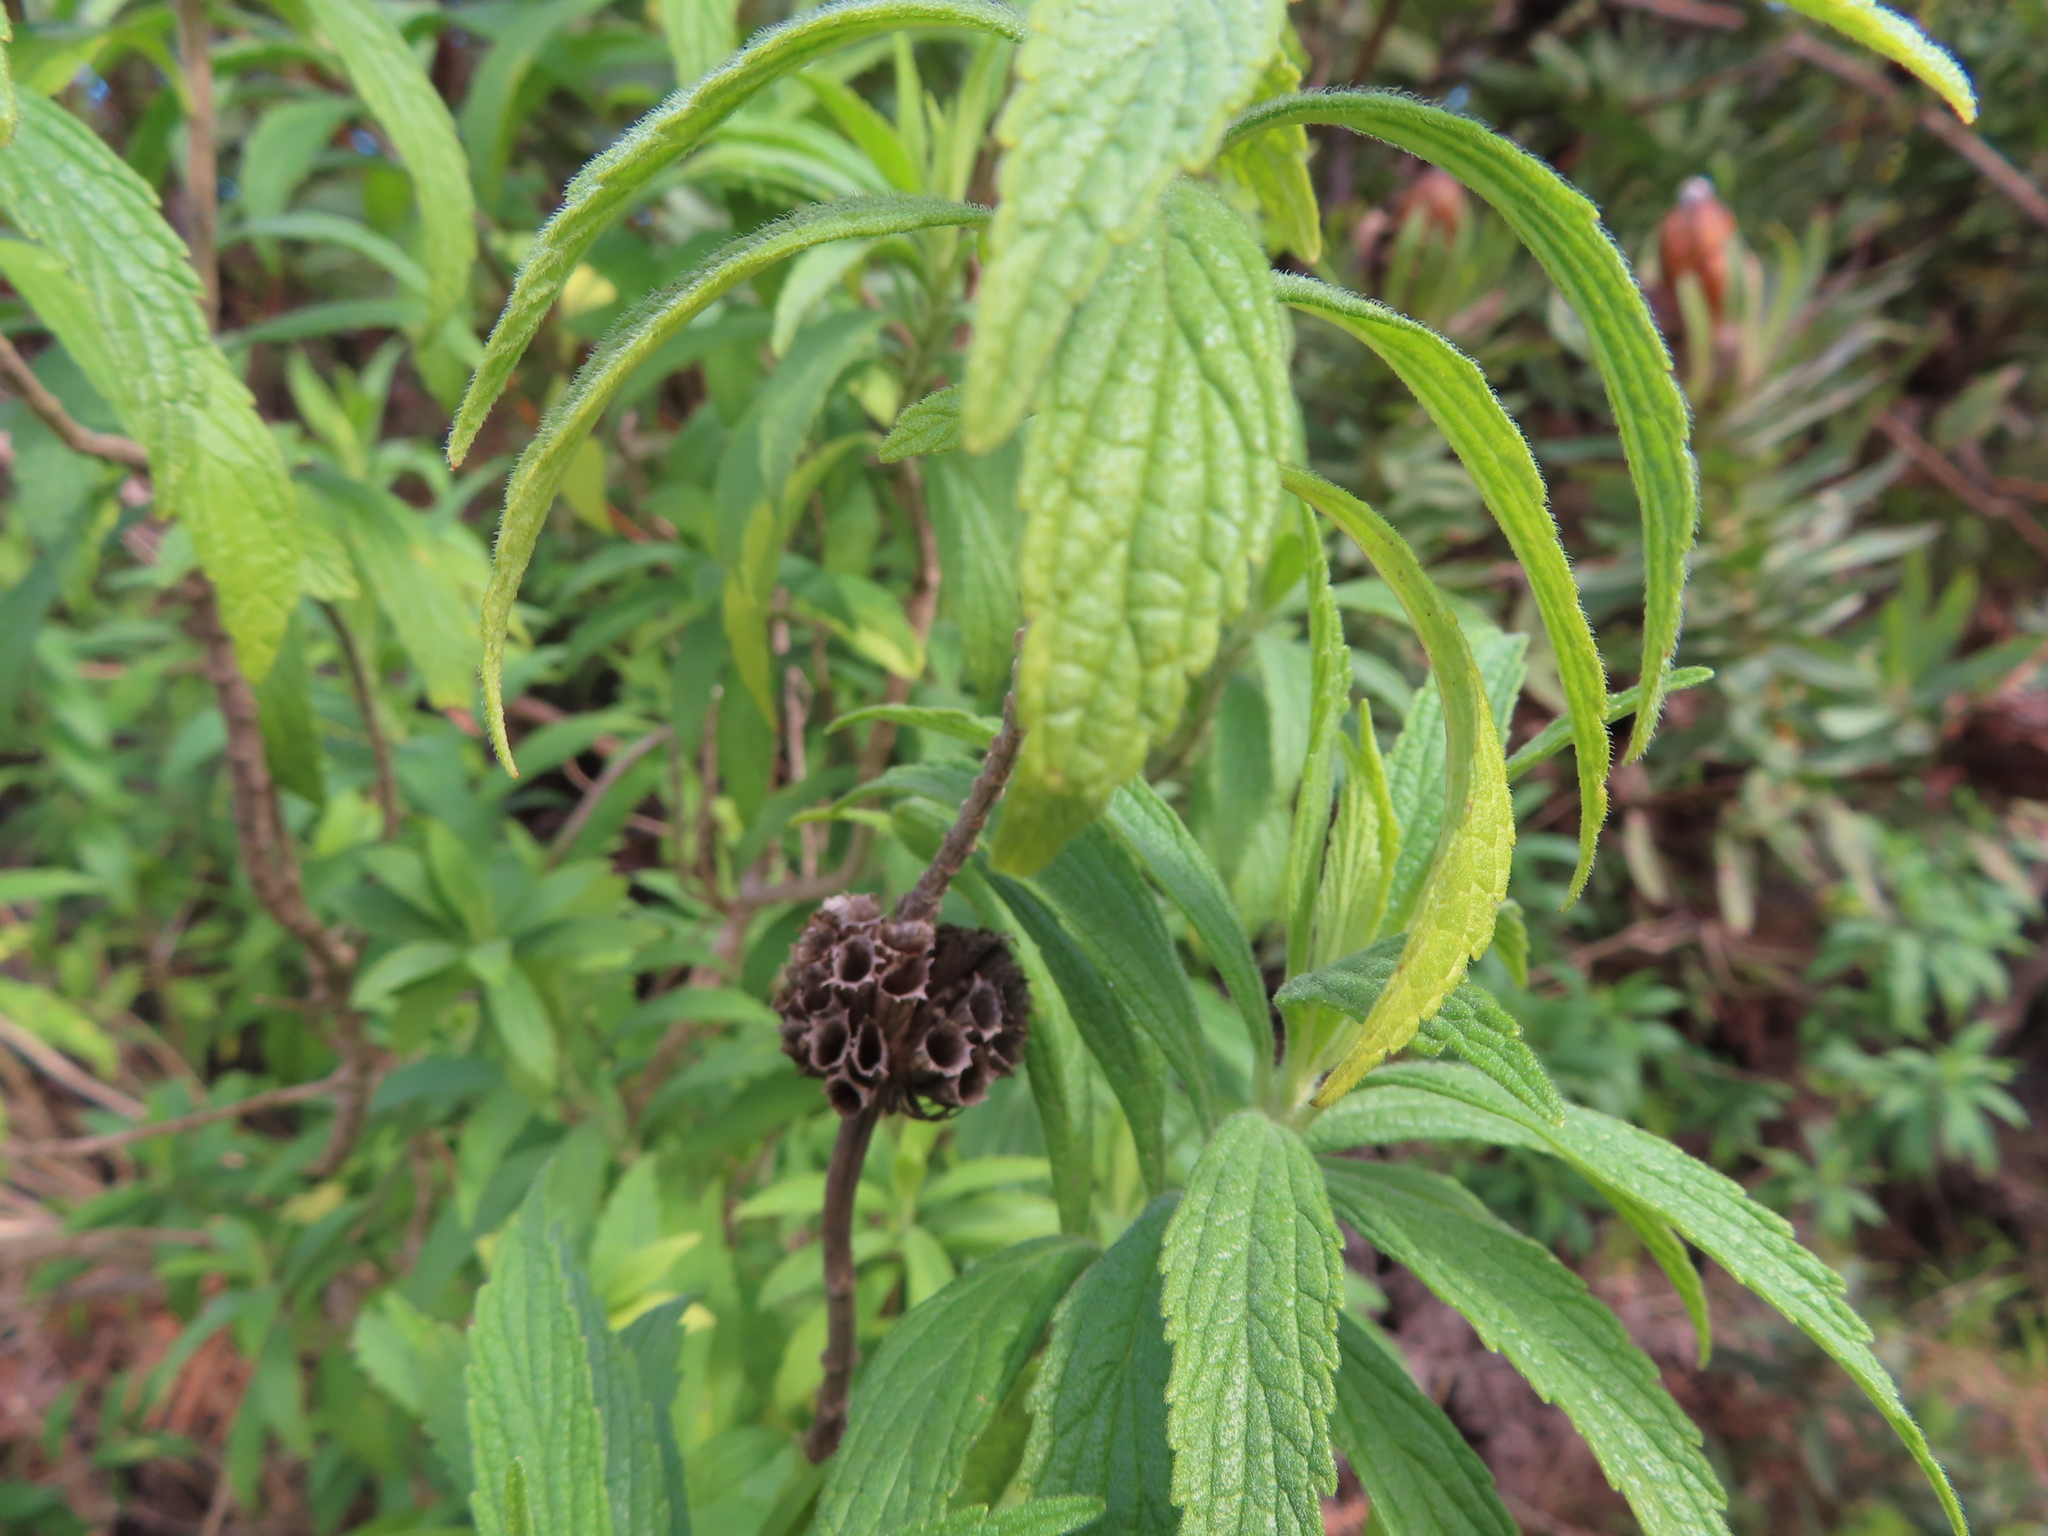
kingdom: Plantae
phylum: Tracheophyta
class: Magnoliopsida
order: Lamiales
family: Lamiaceae
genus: Leonotis
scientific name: Leonotis leonurus
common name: Lion's ear
